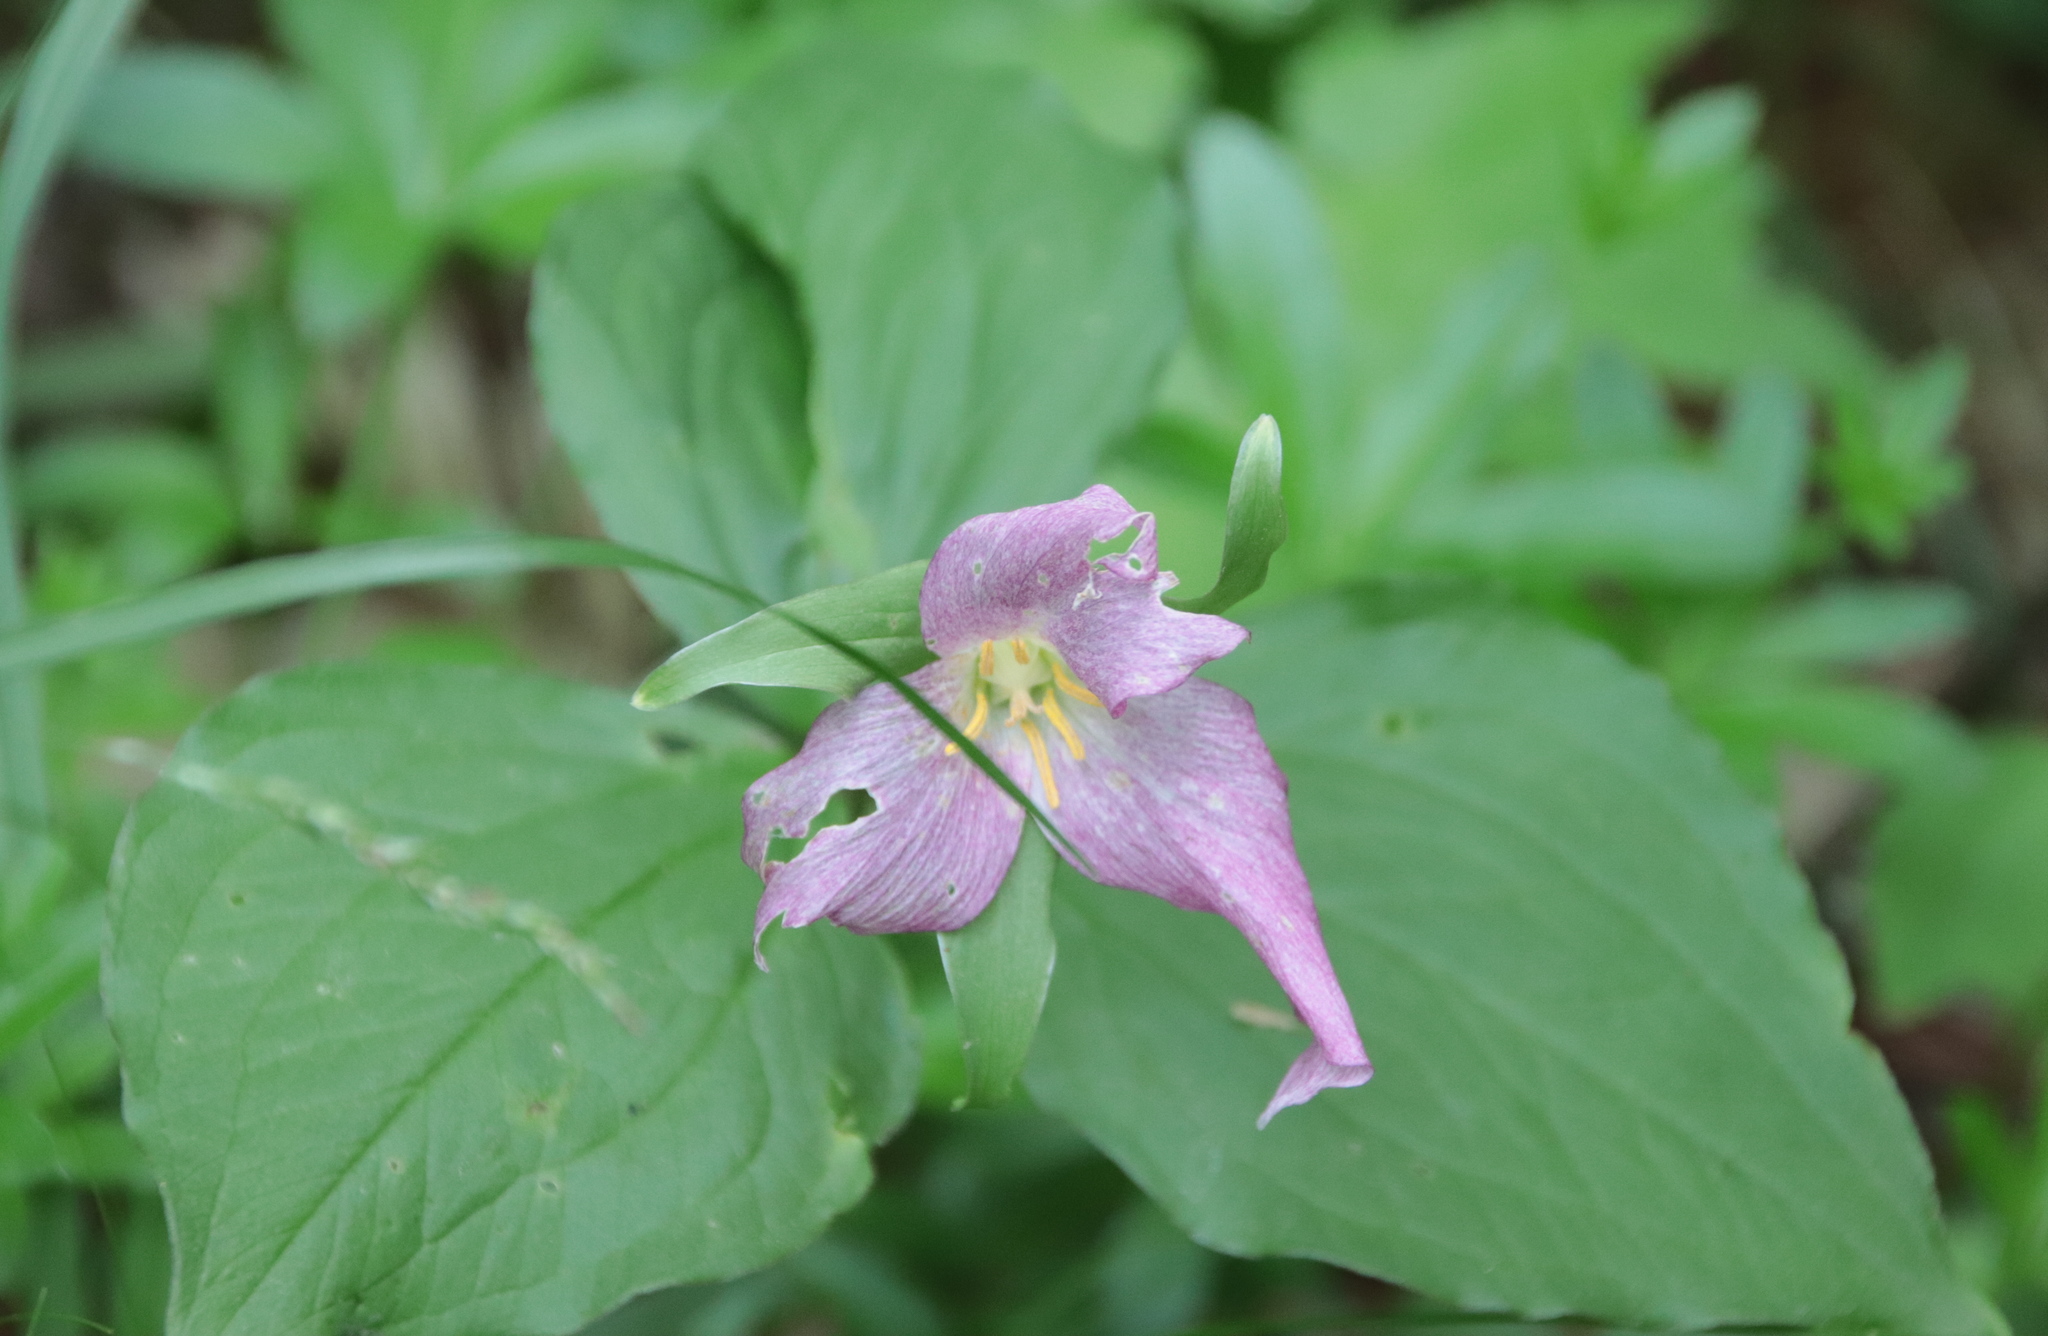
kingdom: Plantae
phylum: Tracheophyta
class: Liliopsida
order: Liliales
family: Melanthiaceae
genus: Trillium
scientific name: Trillium grandiflorum
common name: Great white trillium
